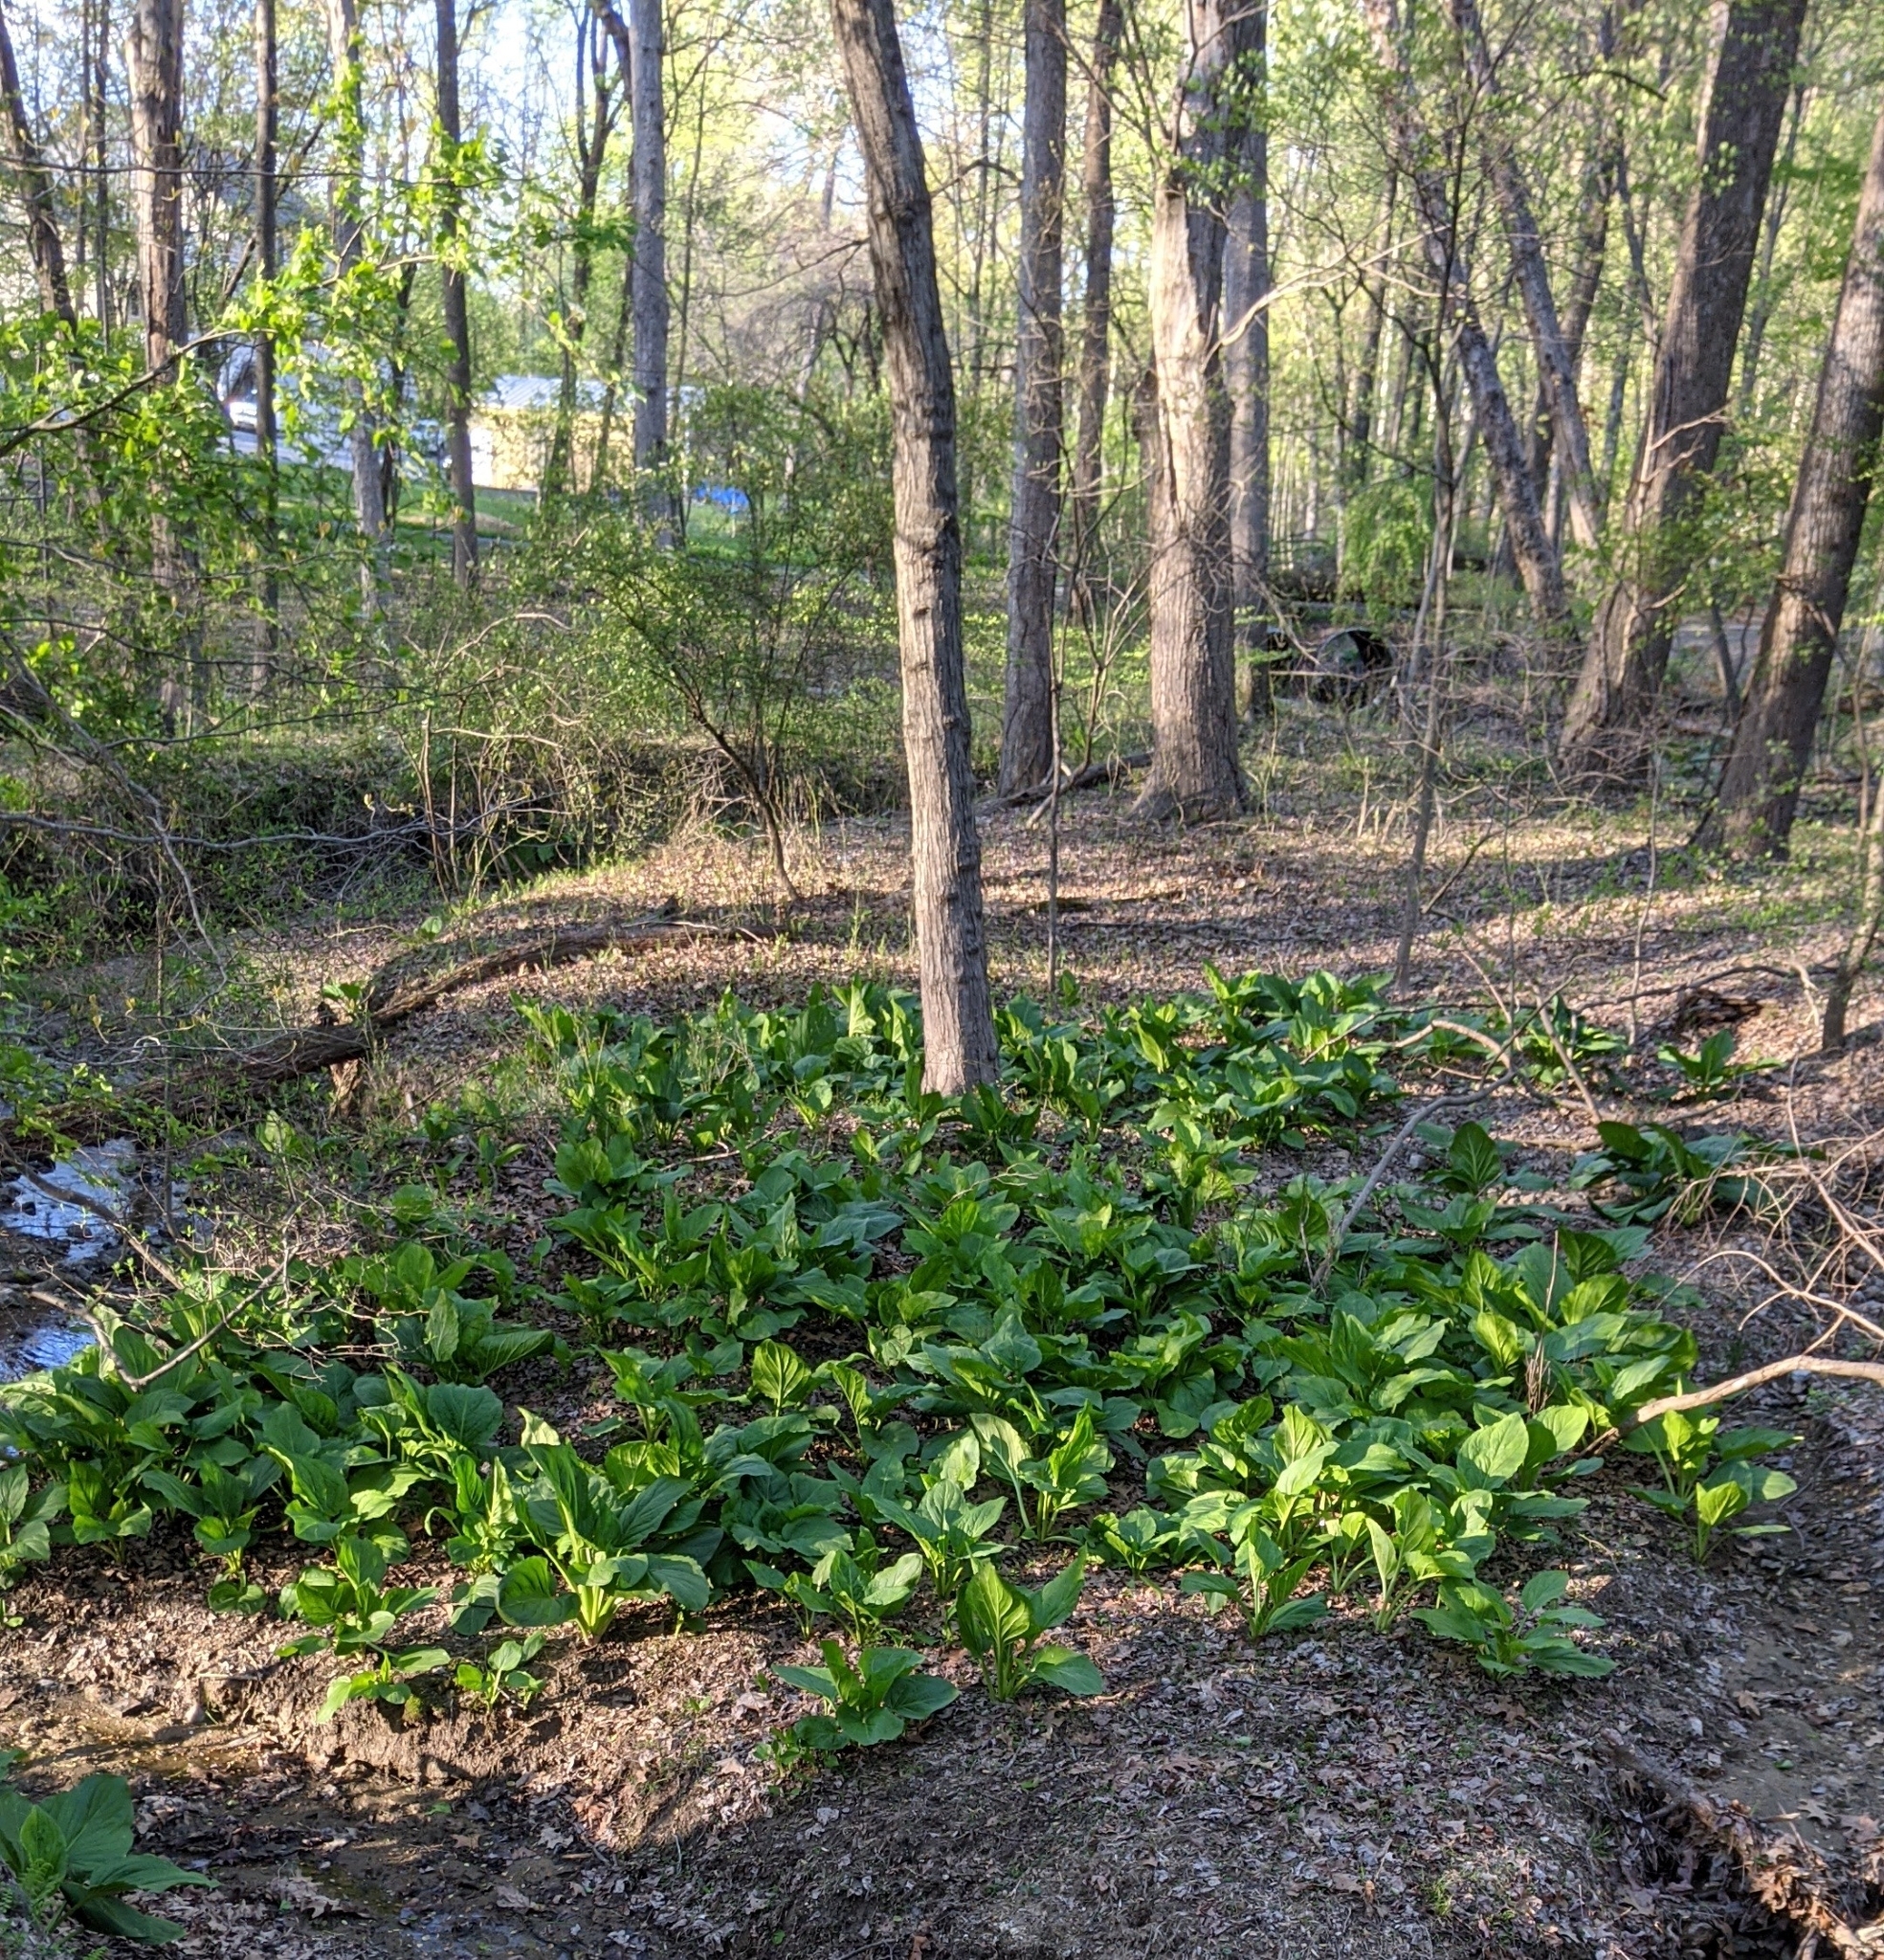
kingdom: Plantae
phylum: Tracheophyta
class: Liliopsida
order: Alismatales
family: Araceae
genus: Symplocarpus
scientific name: Symplocarpus foetidus
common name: Eastern skunk cabbage
